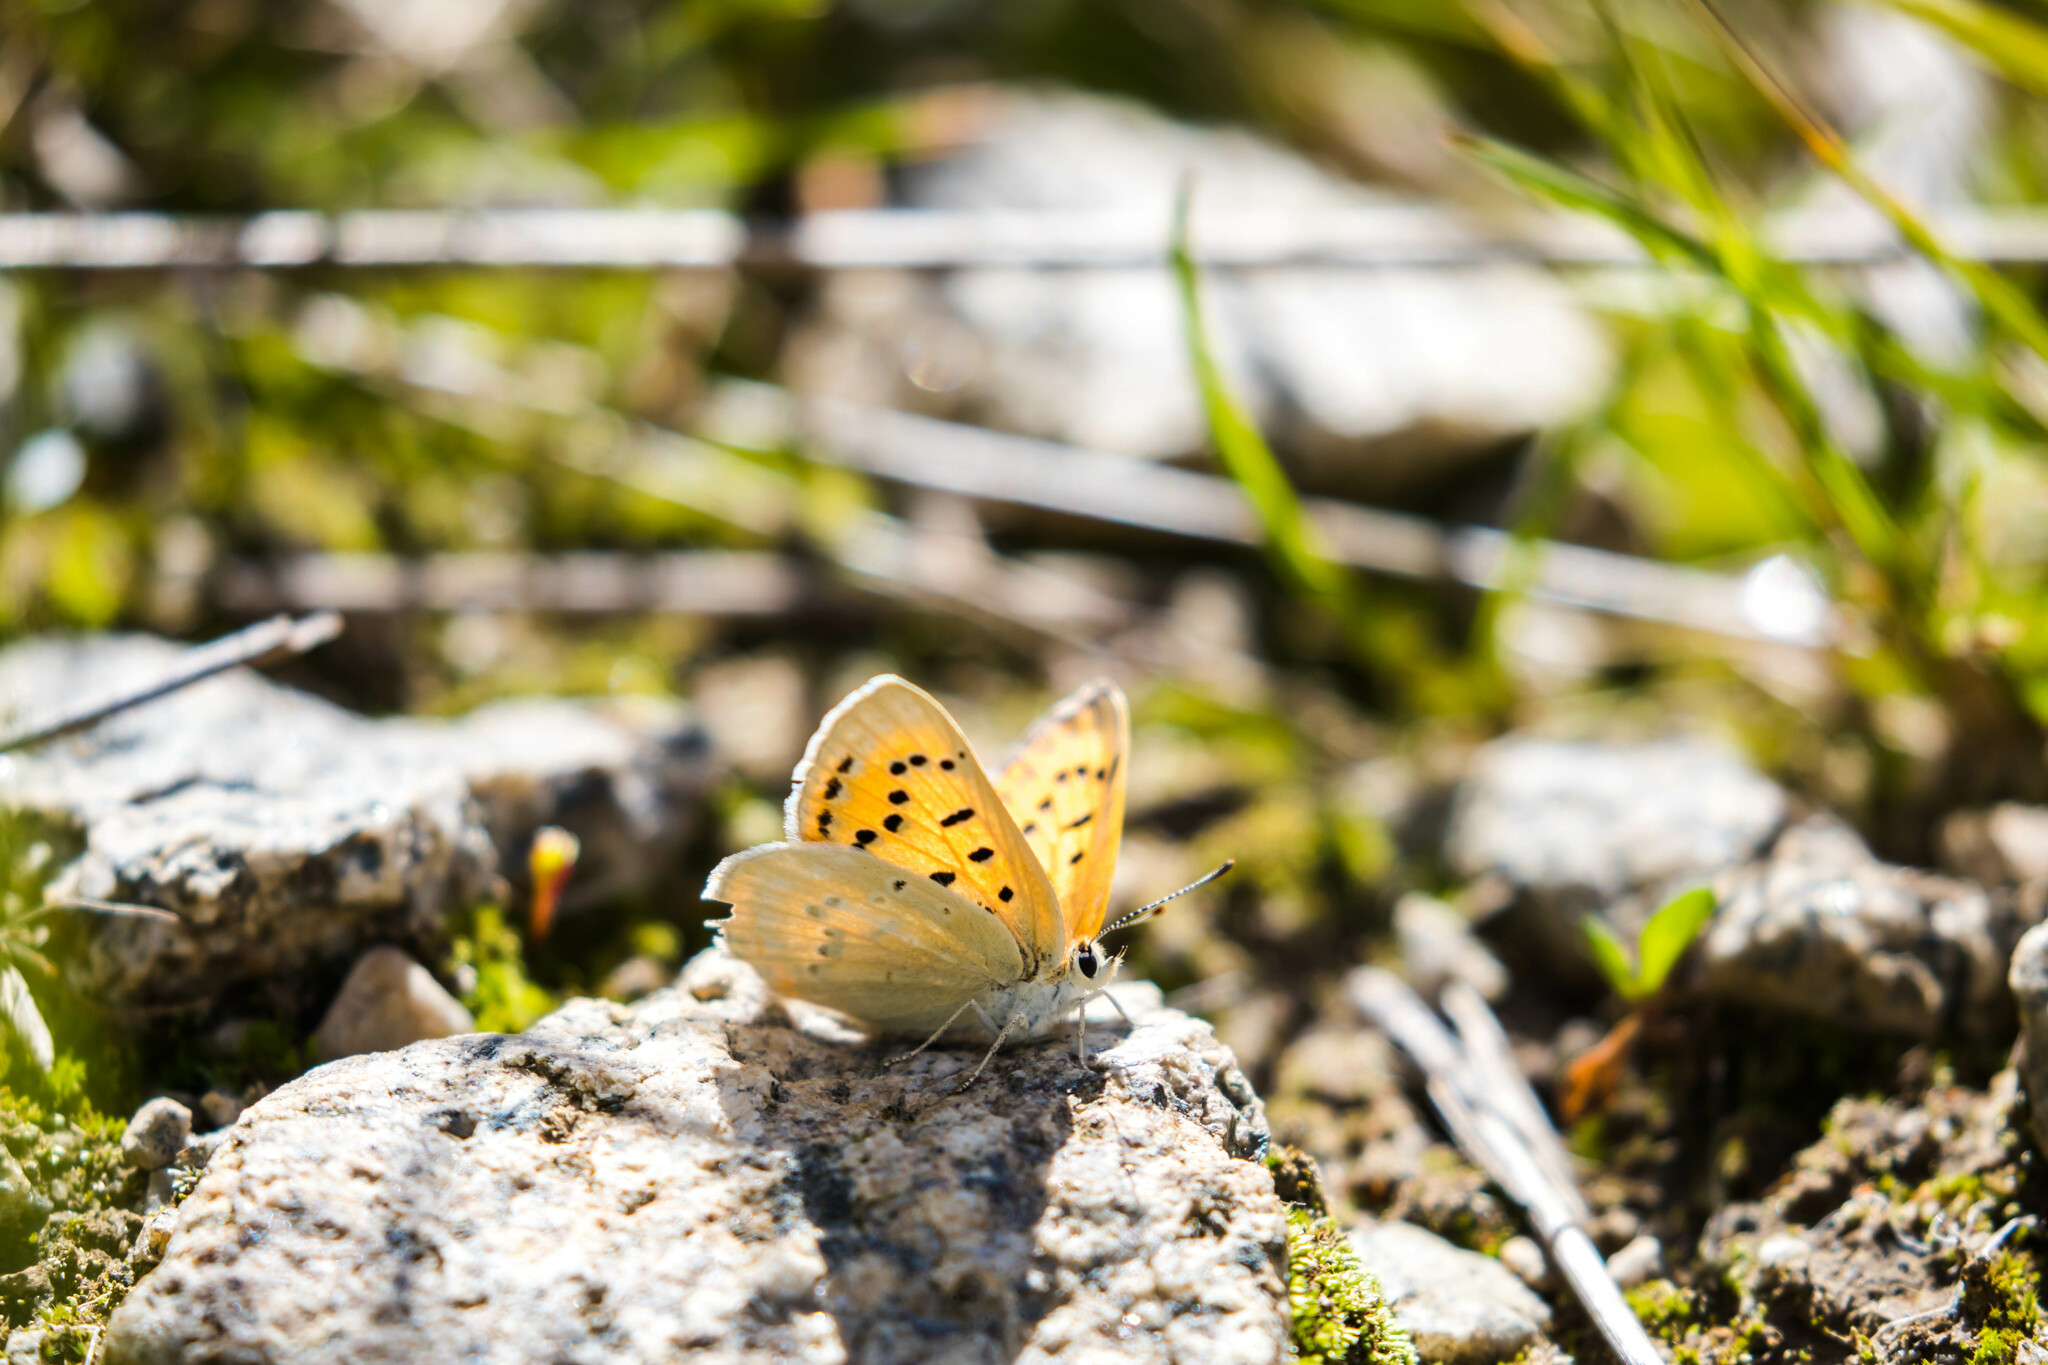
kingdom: Animalia
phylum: Arthropoda
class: Insecta
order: Lepidoptera
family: Lycaenidae
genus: Tharsalea
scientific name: Tharsalea rubidus
